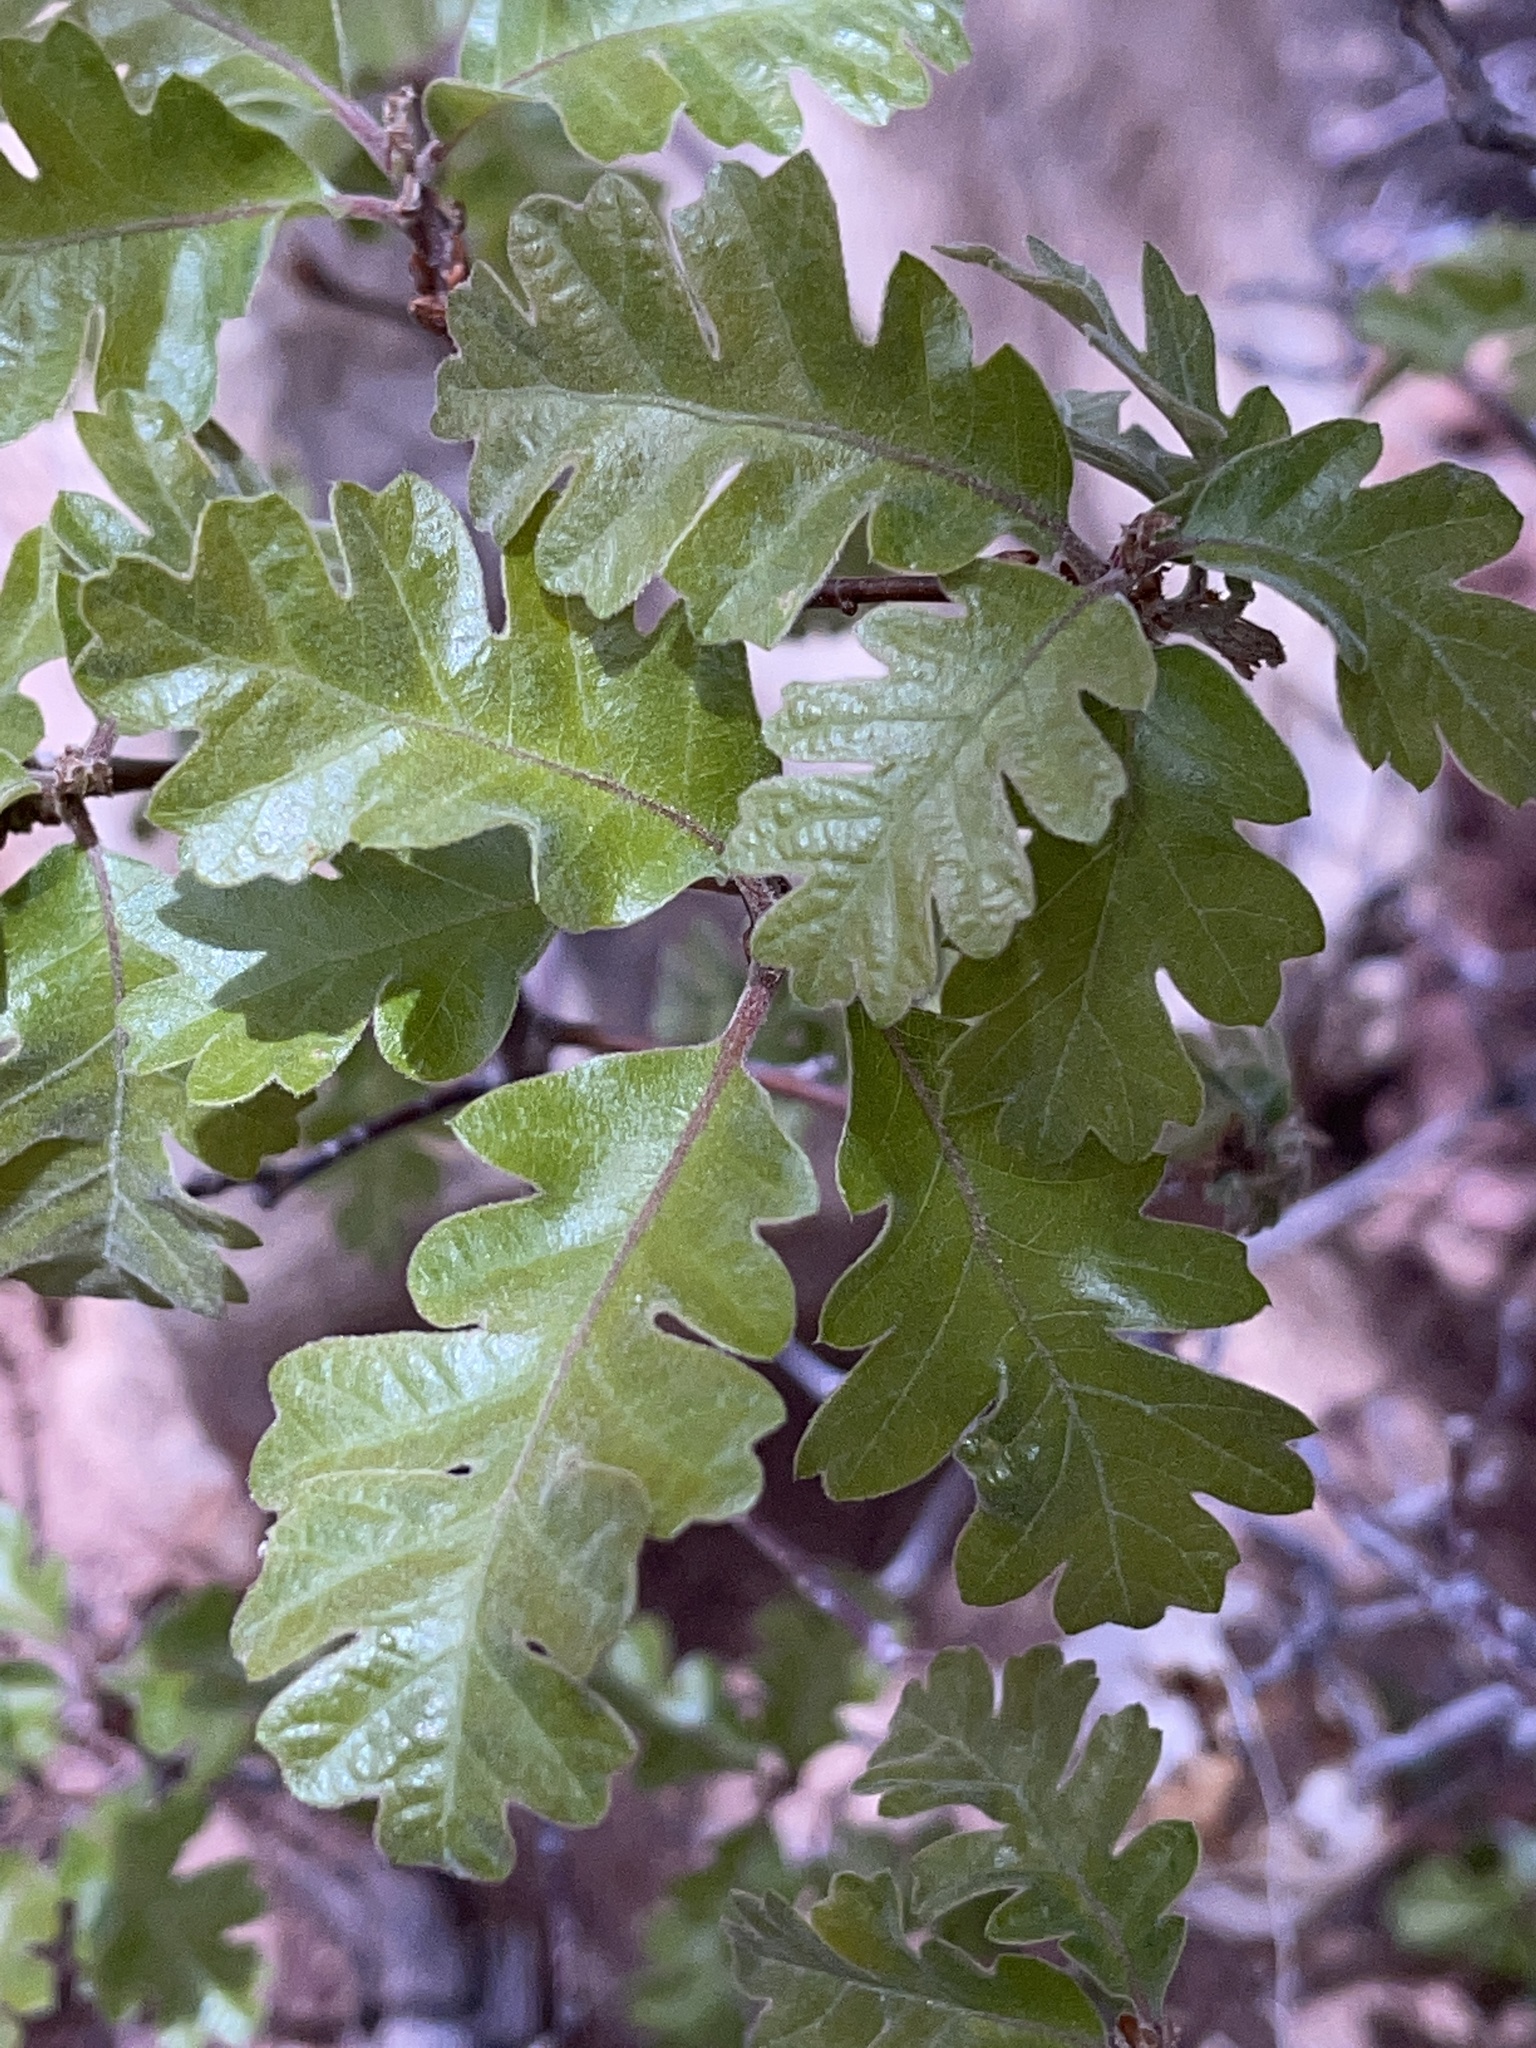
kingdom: Plantae
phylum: Tracheophyta
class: Magnoliopsida
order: Fagales
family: Fagaceae
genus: Quercus
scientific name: Quercus gambelii
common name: Gambel oak
